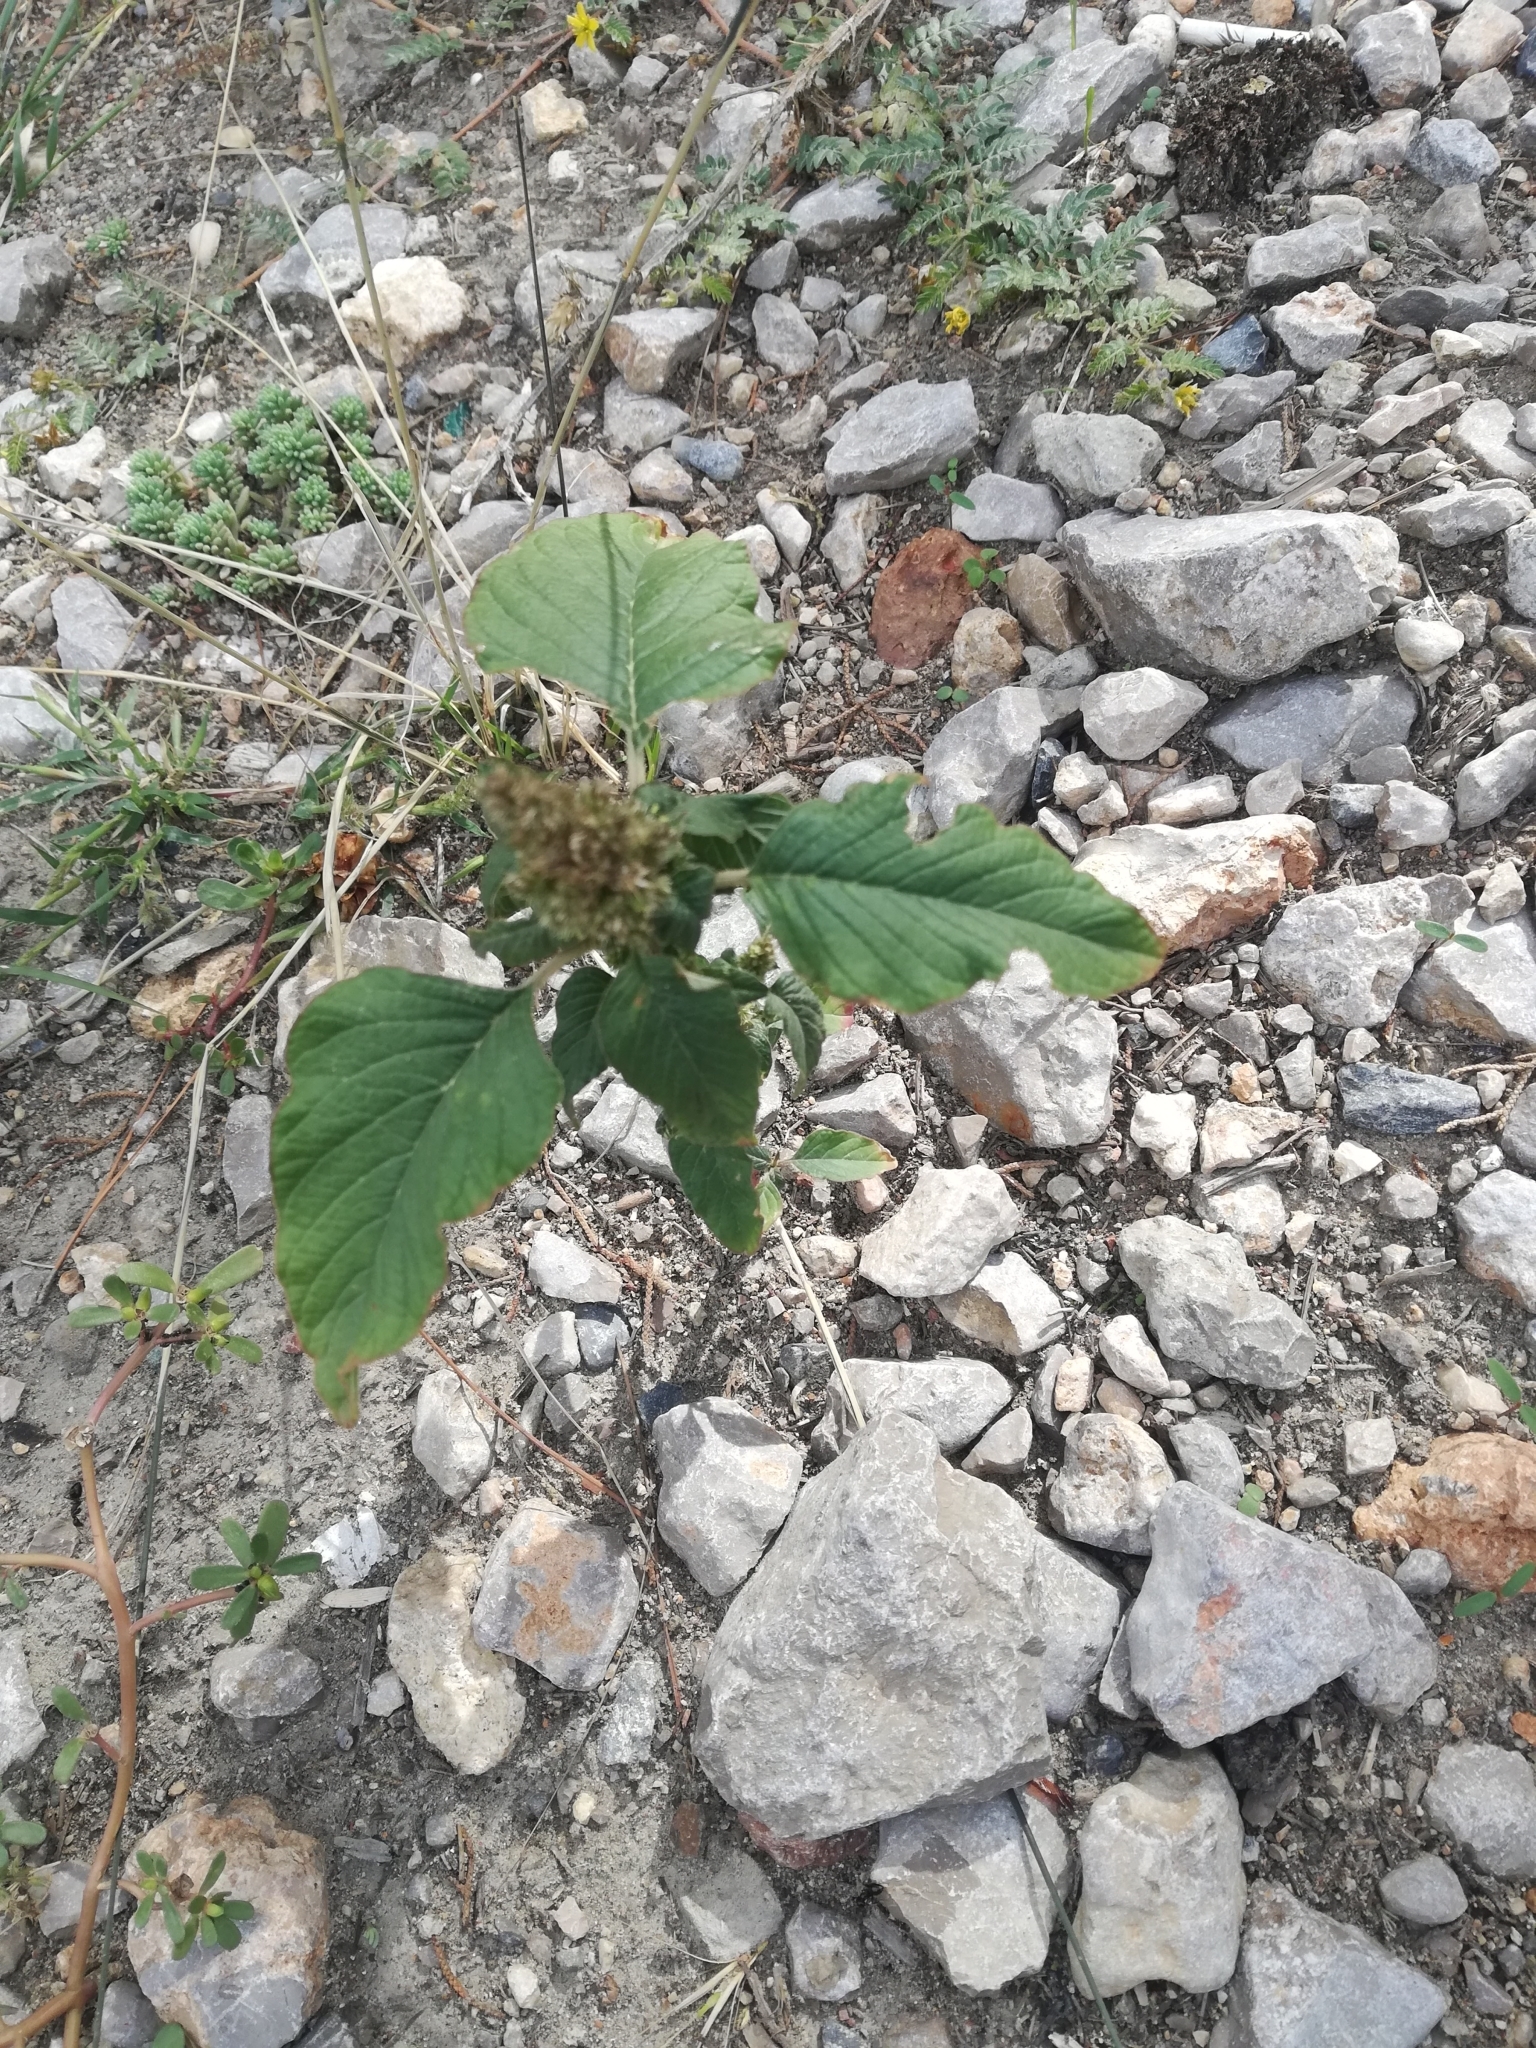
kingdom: Plantae
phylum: Tracheophyta
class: Magnoliopsida
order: Caryophyllales
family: Amaranthaceae
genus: Amaranthus
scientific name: Amaranthus retroflexus
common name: Redroot amaranth
